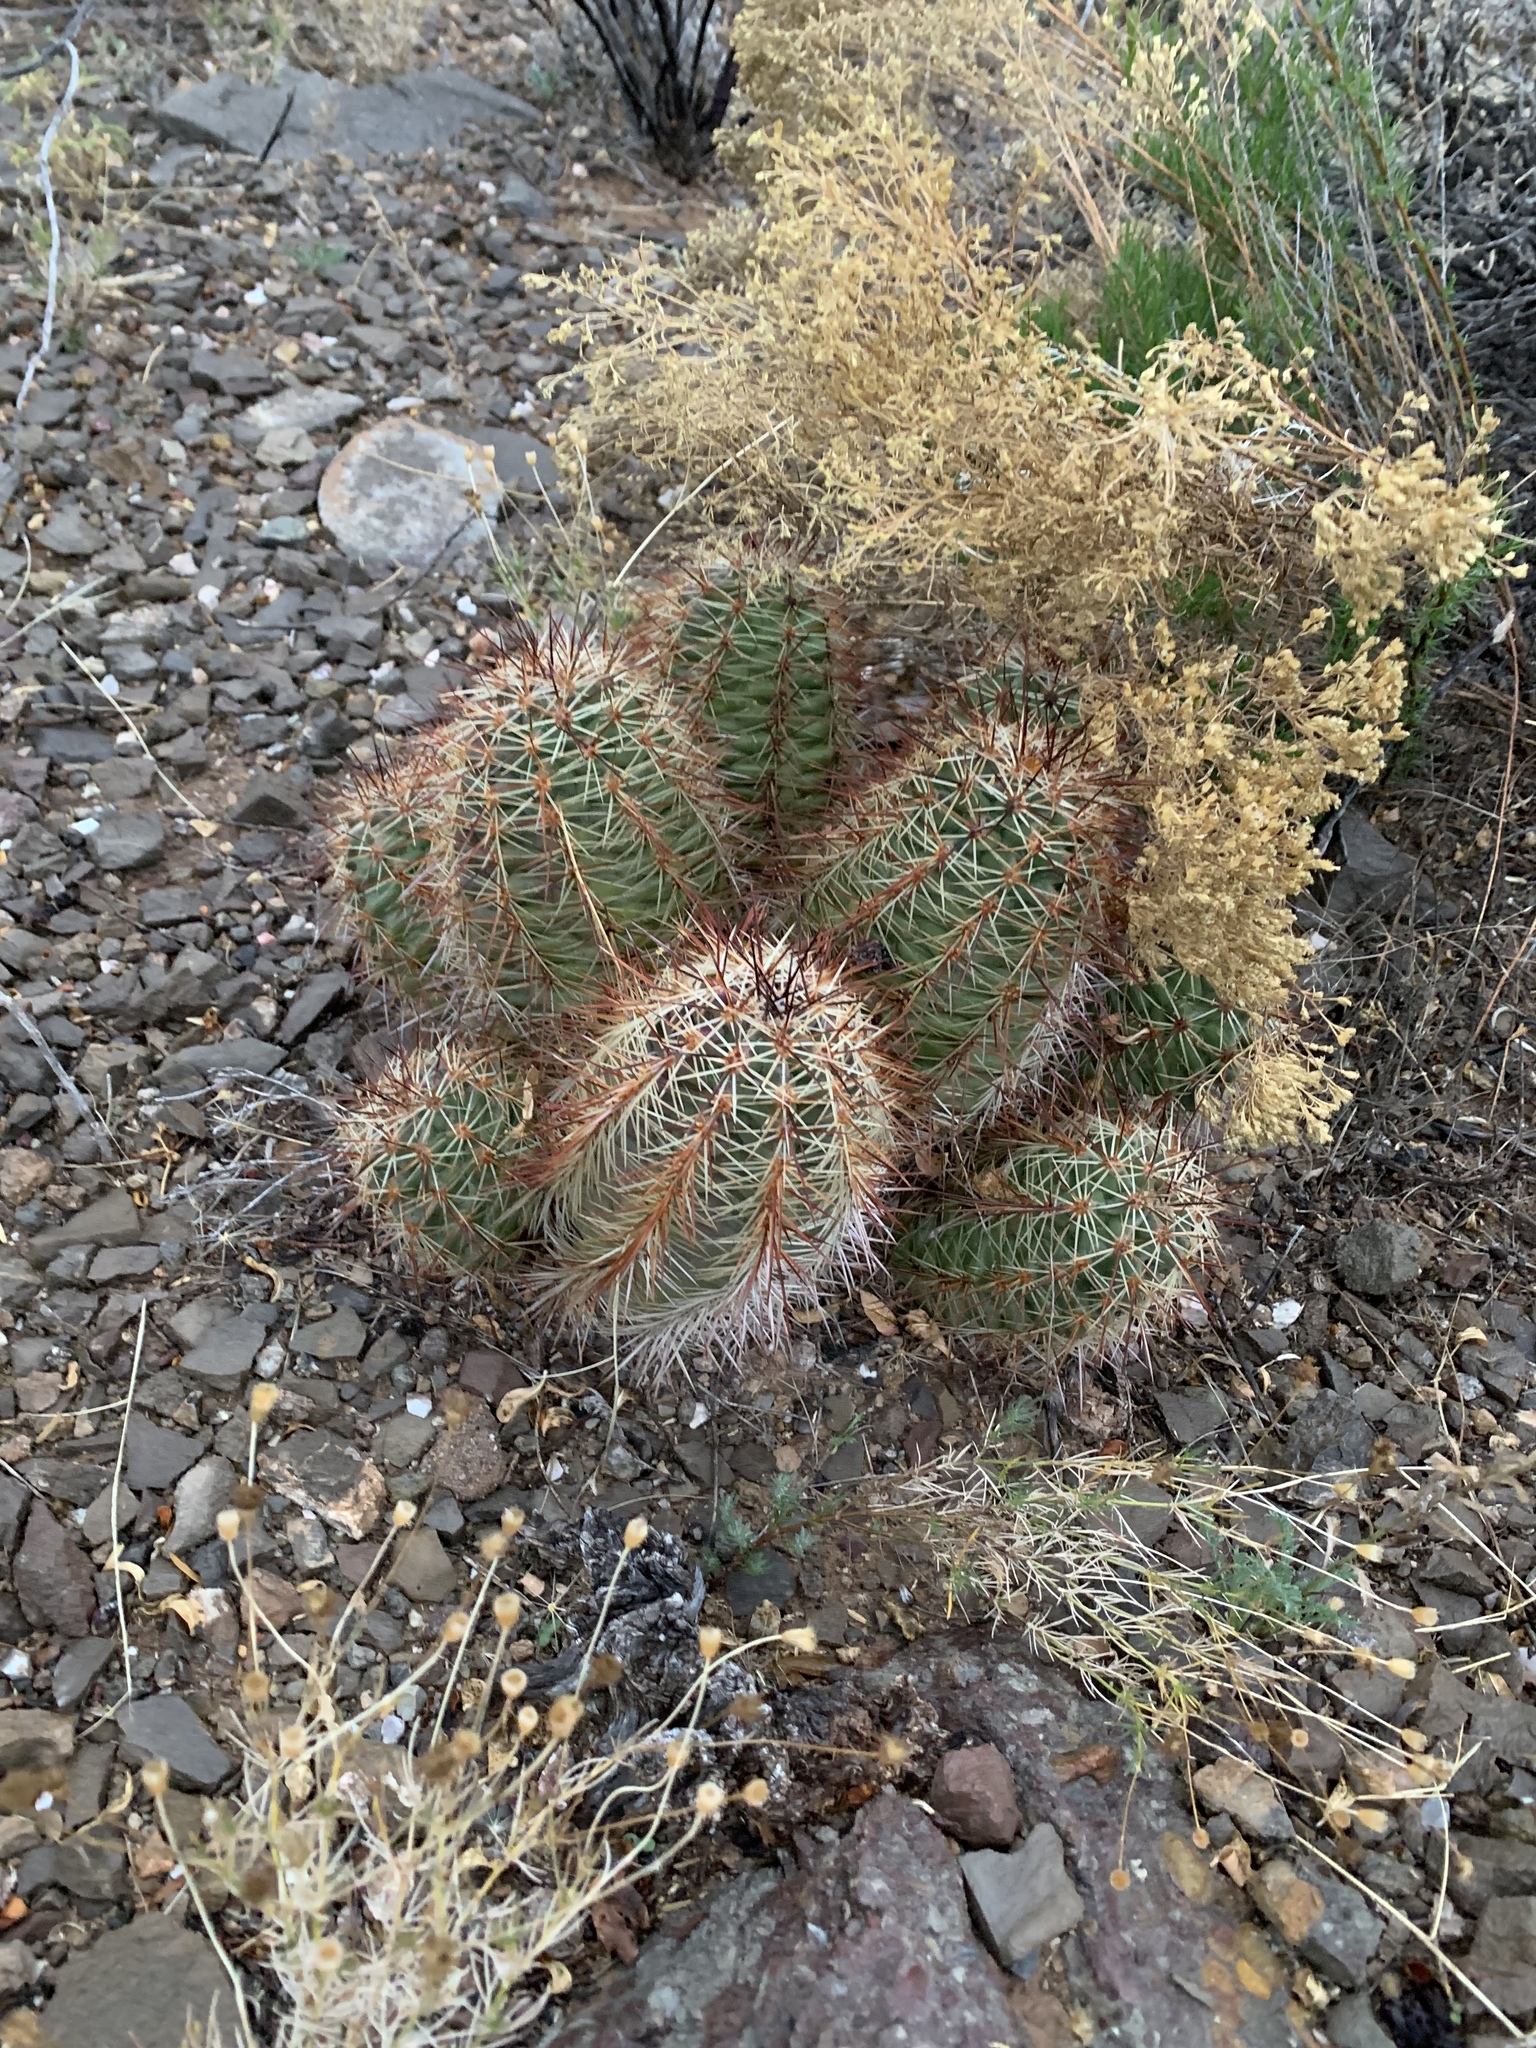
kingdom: Plantae
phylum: Tracheophyta
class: Magnoliopsida
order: Caryophyllales
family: Cactaceae
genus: Echinocereus
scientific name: Echinocereus coccineus
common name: Scarlet hedgehog cactus
